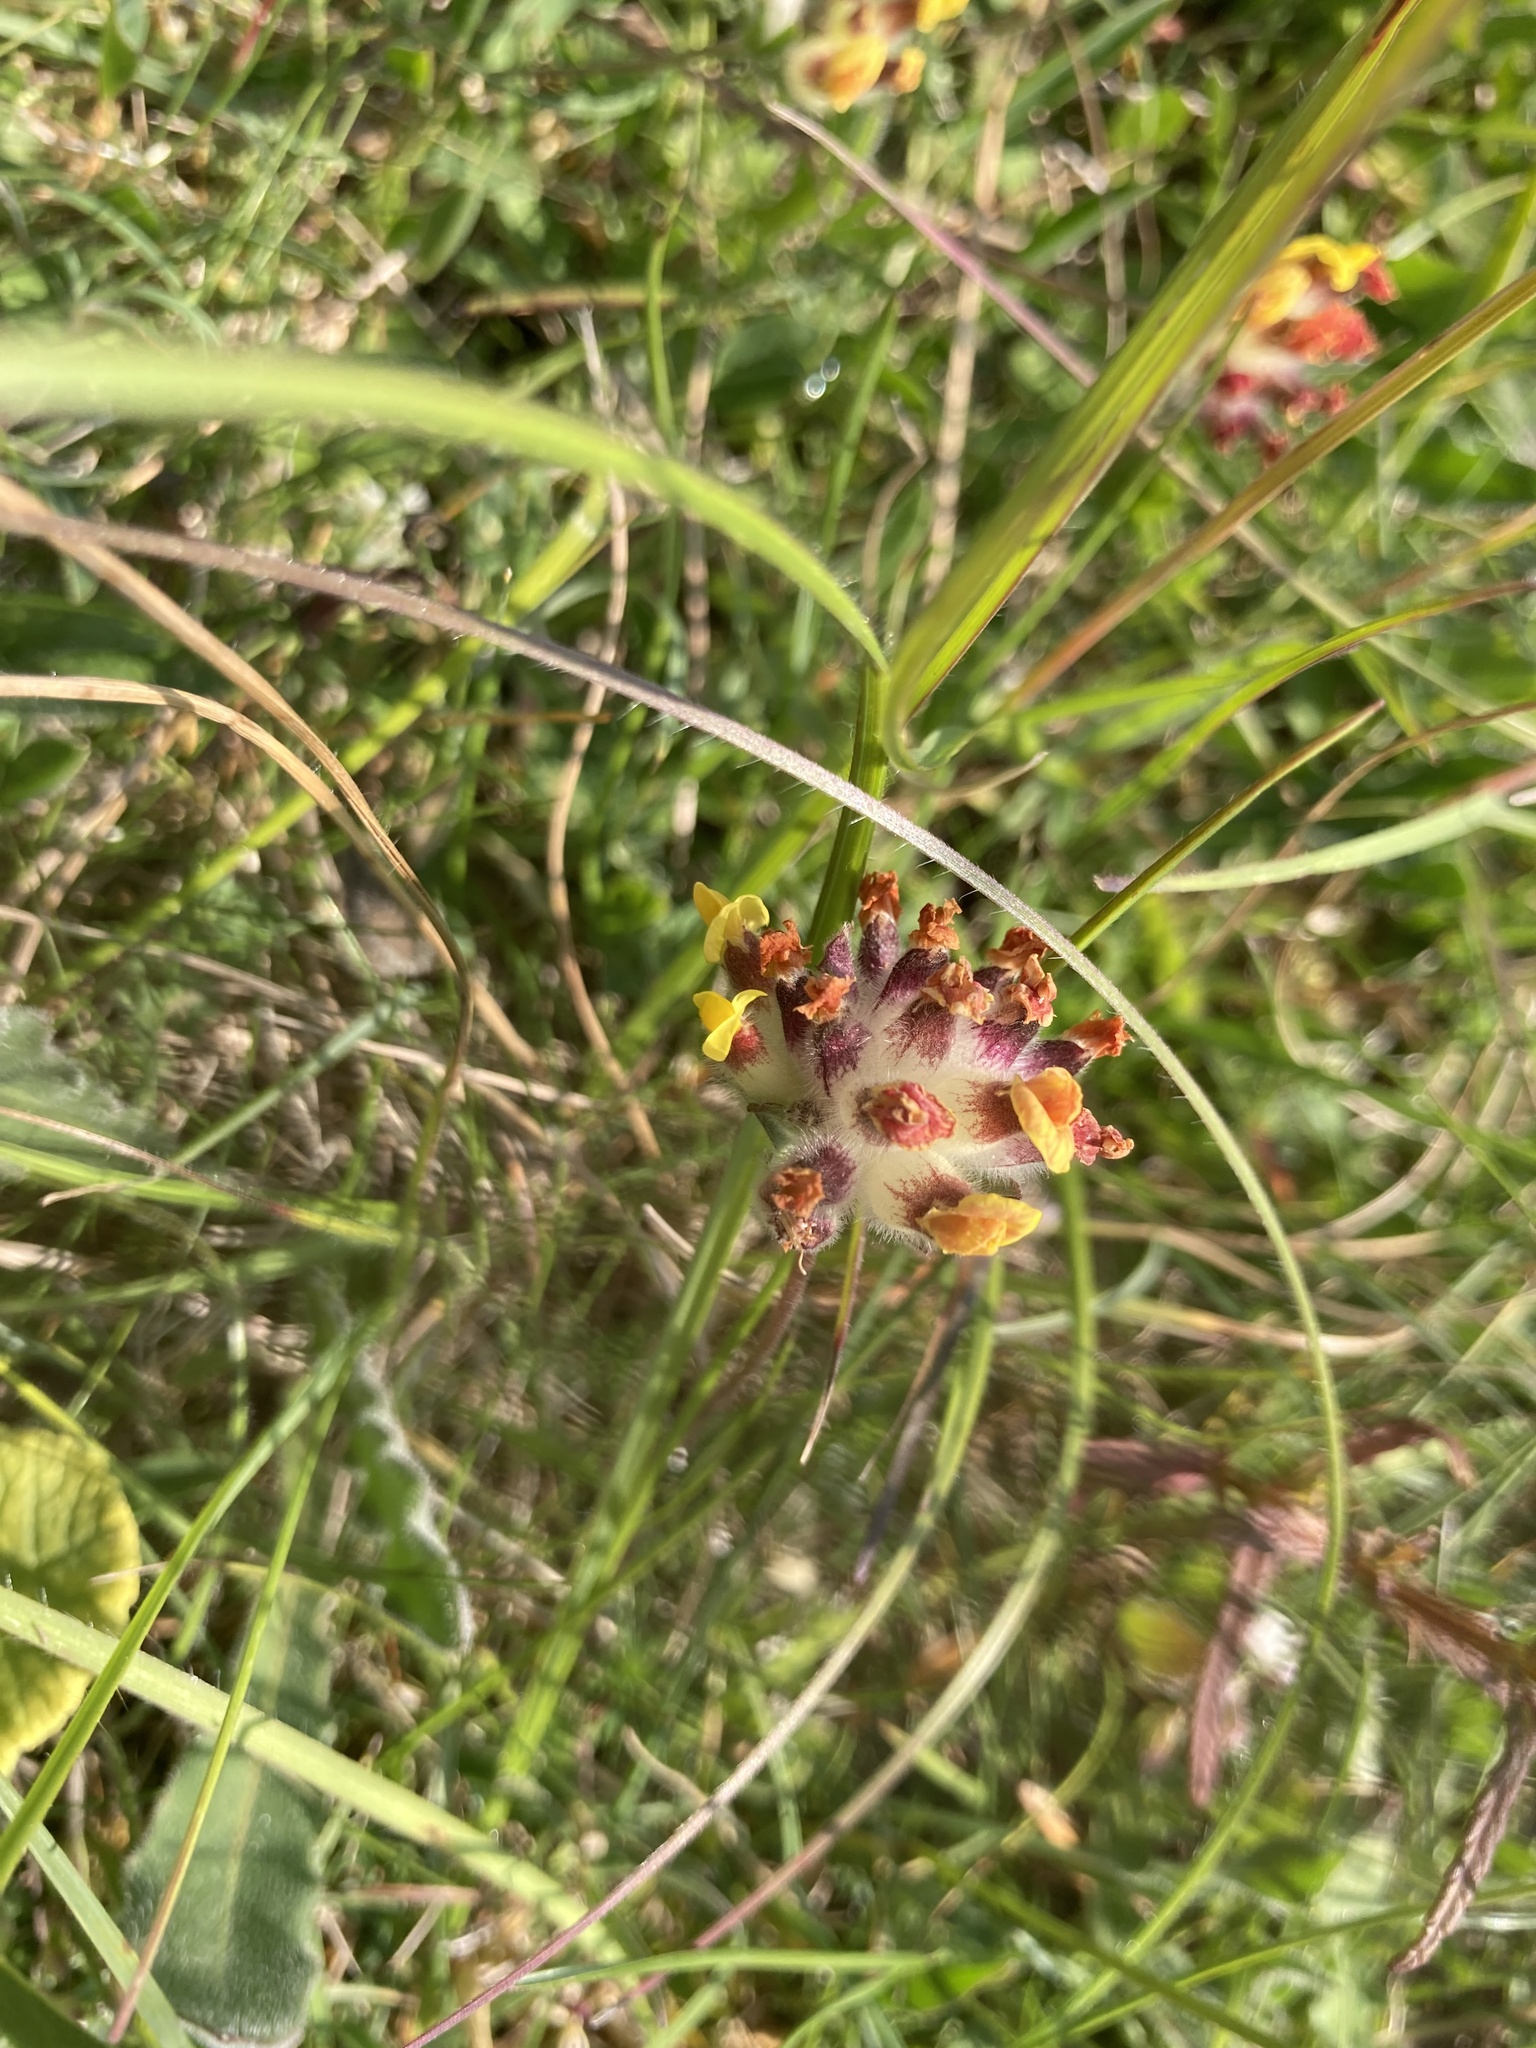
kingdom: Plantae
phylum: Tracheophyta
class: Magnoliopsida
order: Fabales
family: Fabaceae
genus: Anthyllis
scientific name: Anthyllis vulneraria
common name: Kidney vetch
